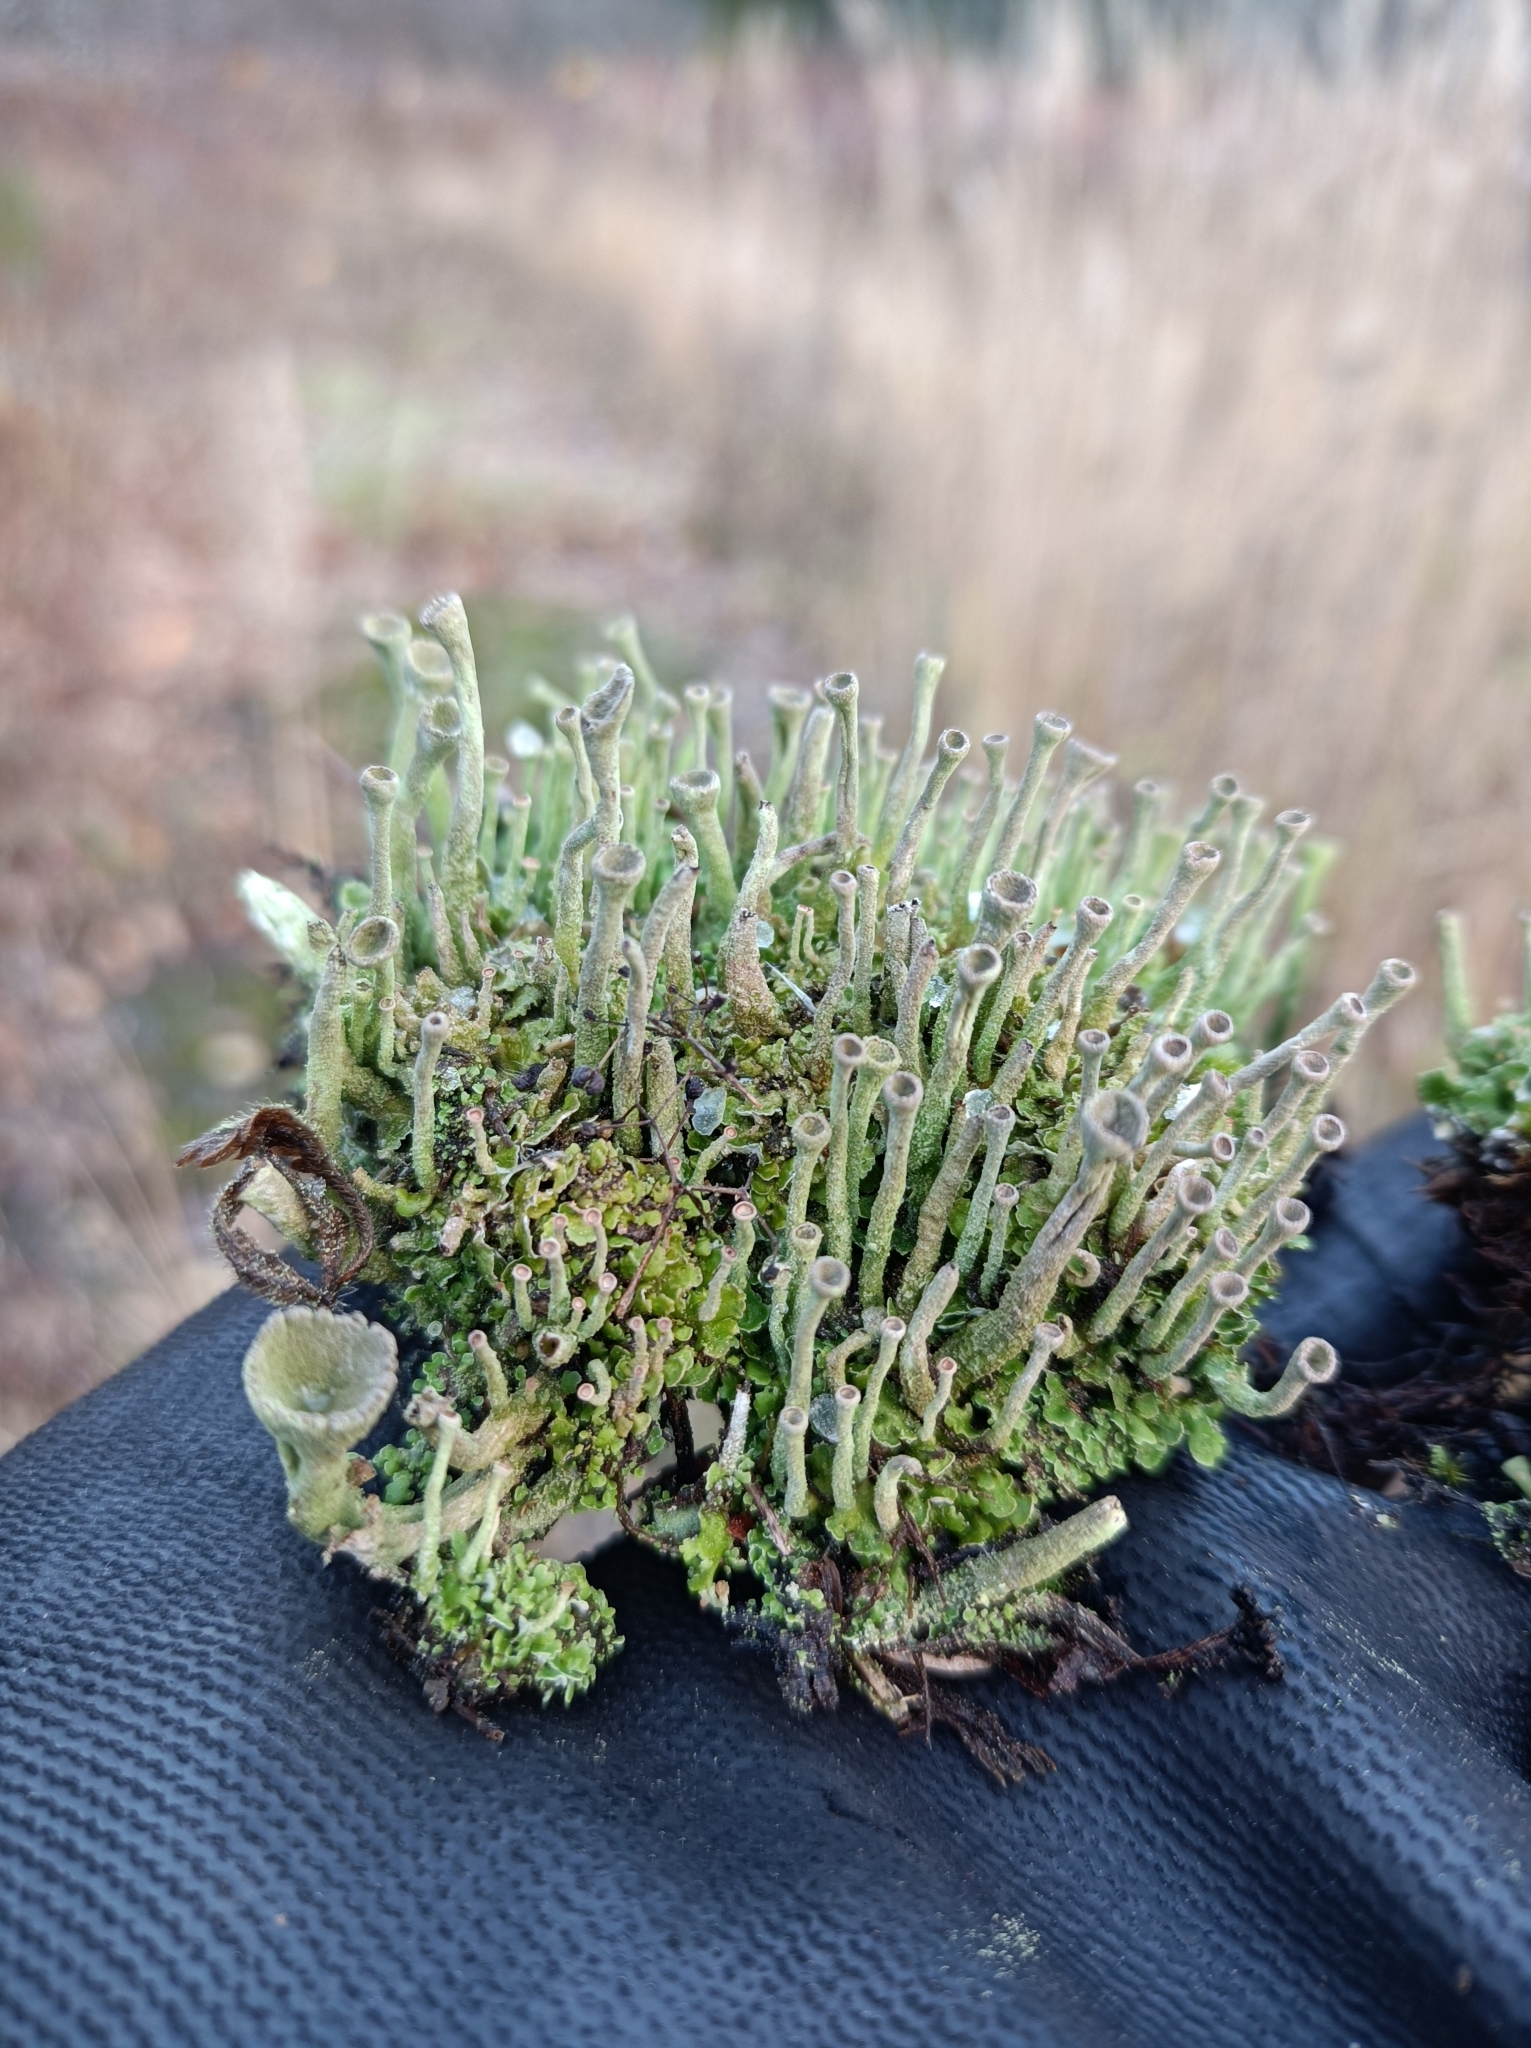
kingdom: Fungi
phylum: Ascomycota
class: Lecanoromycetes
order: Lecanorales
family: Cladoniaceae
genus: Cladonia
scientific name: Cladonia fimbriata
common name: Powdered trumpet lichen
